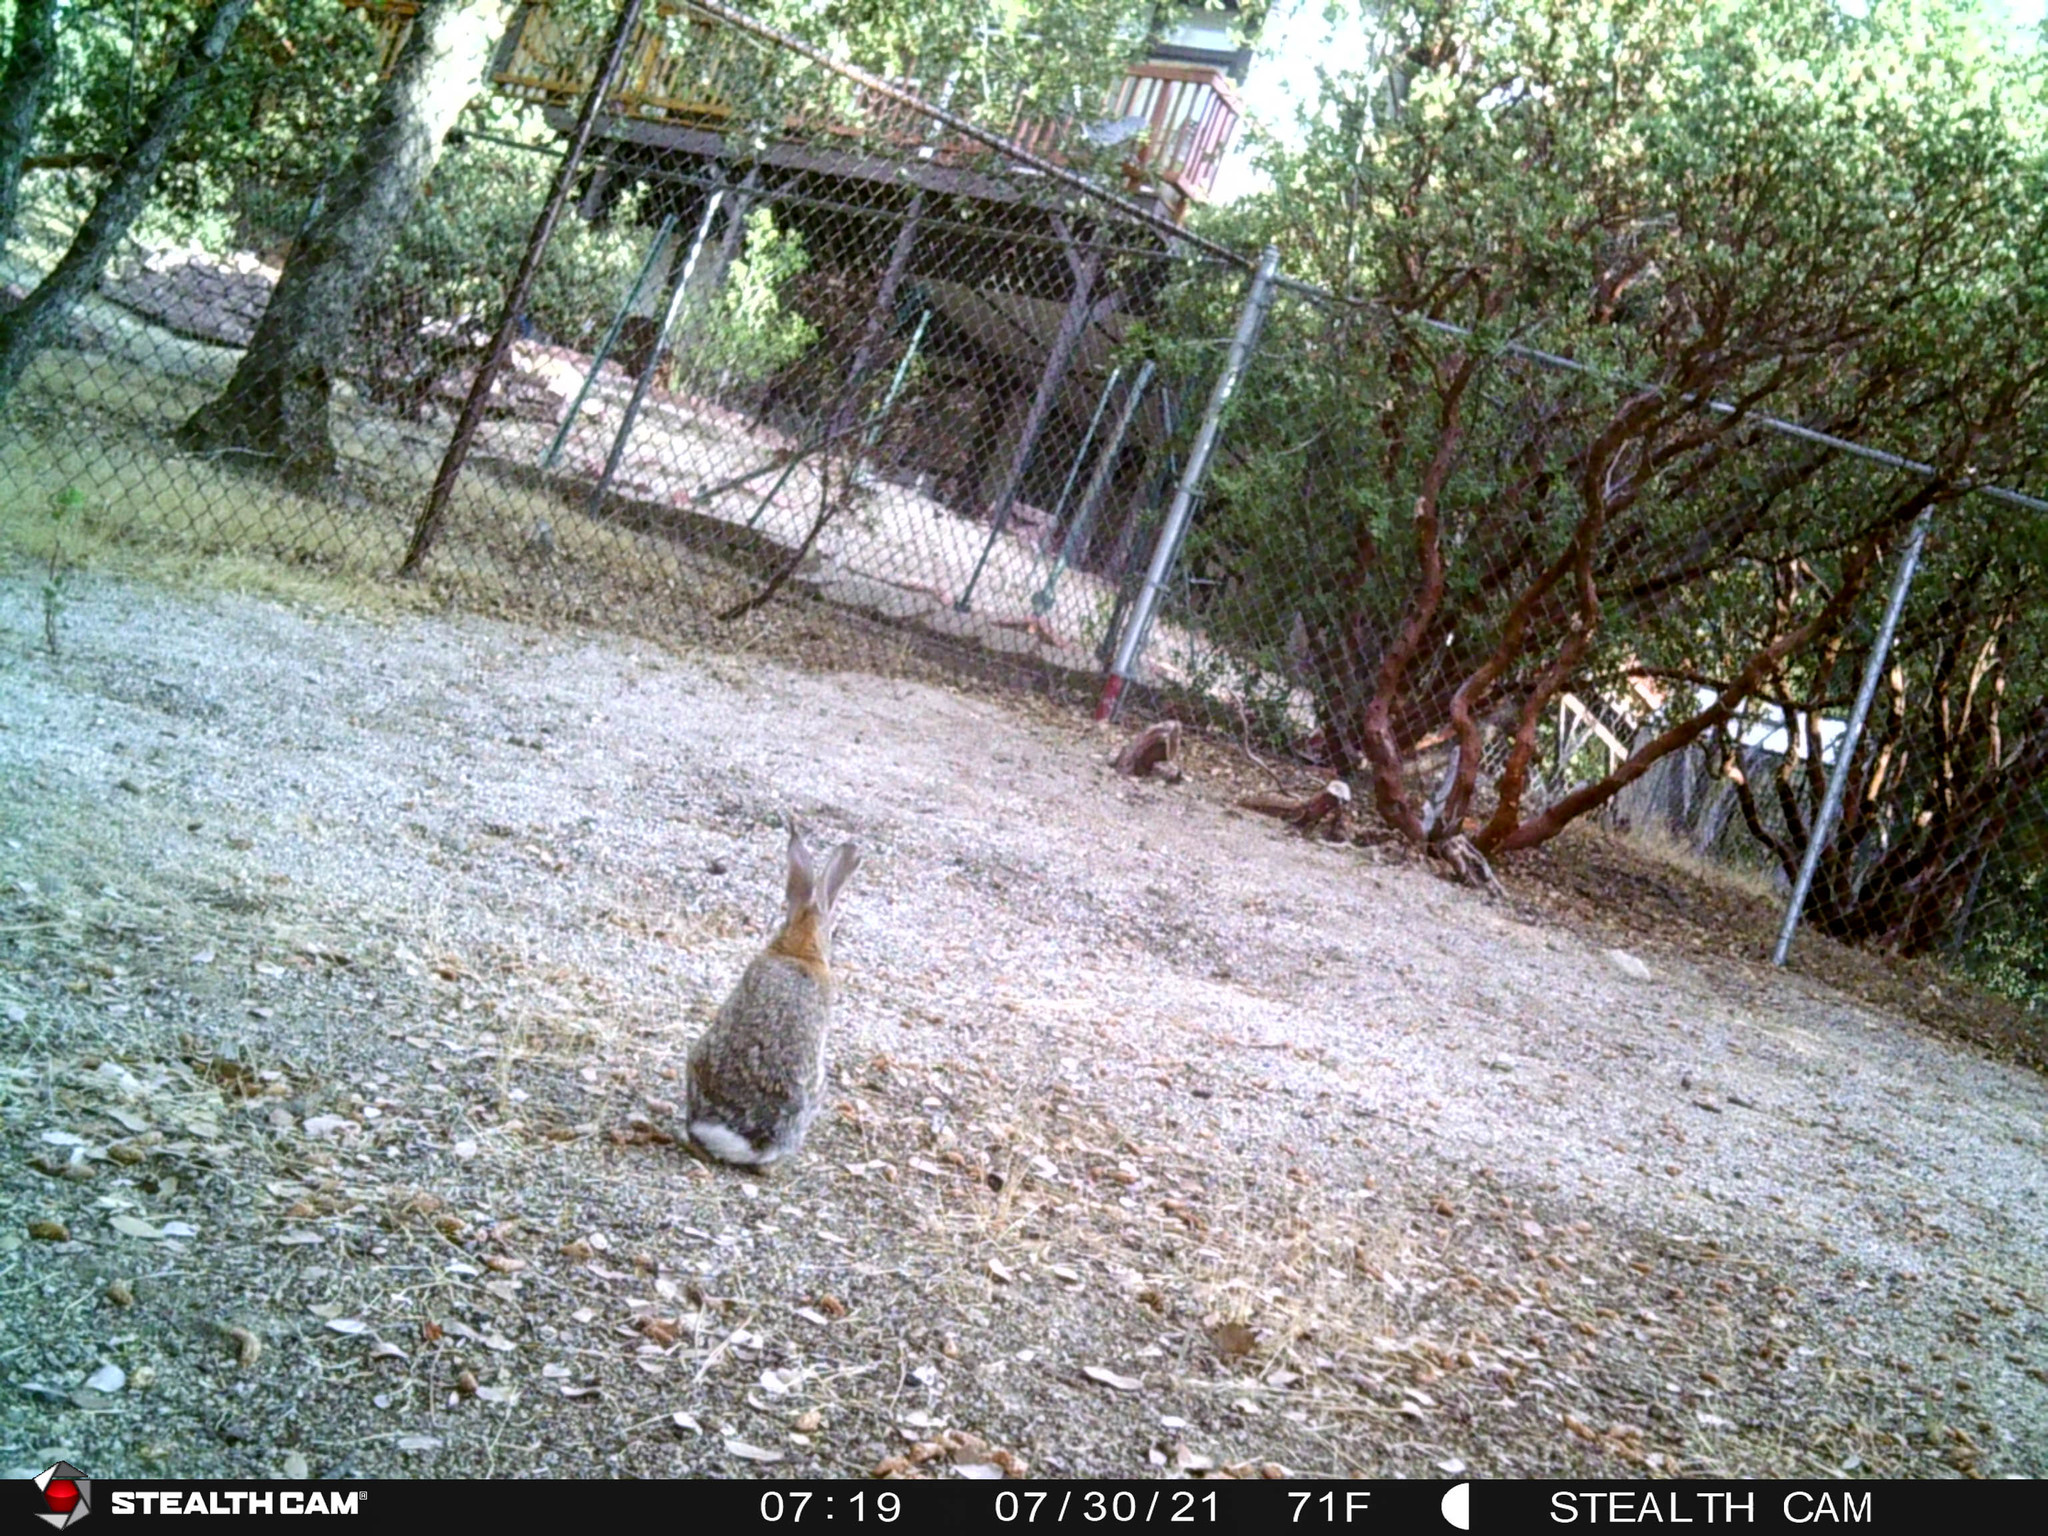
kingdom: Animalia
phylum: Chordata
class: Mammalia
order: Lagomorpha
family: Leporidae
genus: Sylvilagus
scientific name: Sylvilagus audubonii
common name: Desert cottontail
